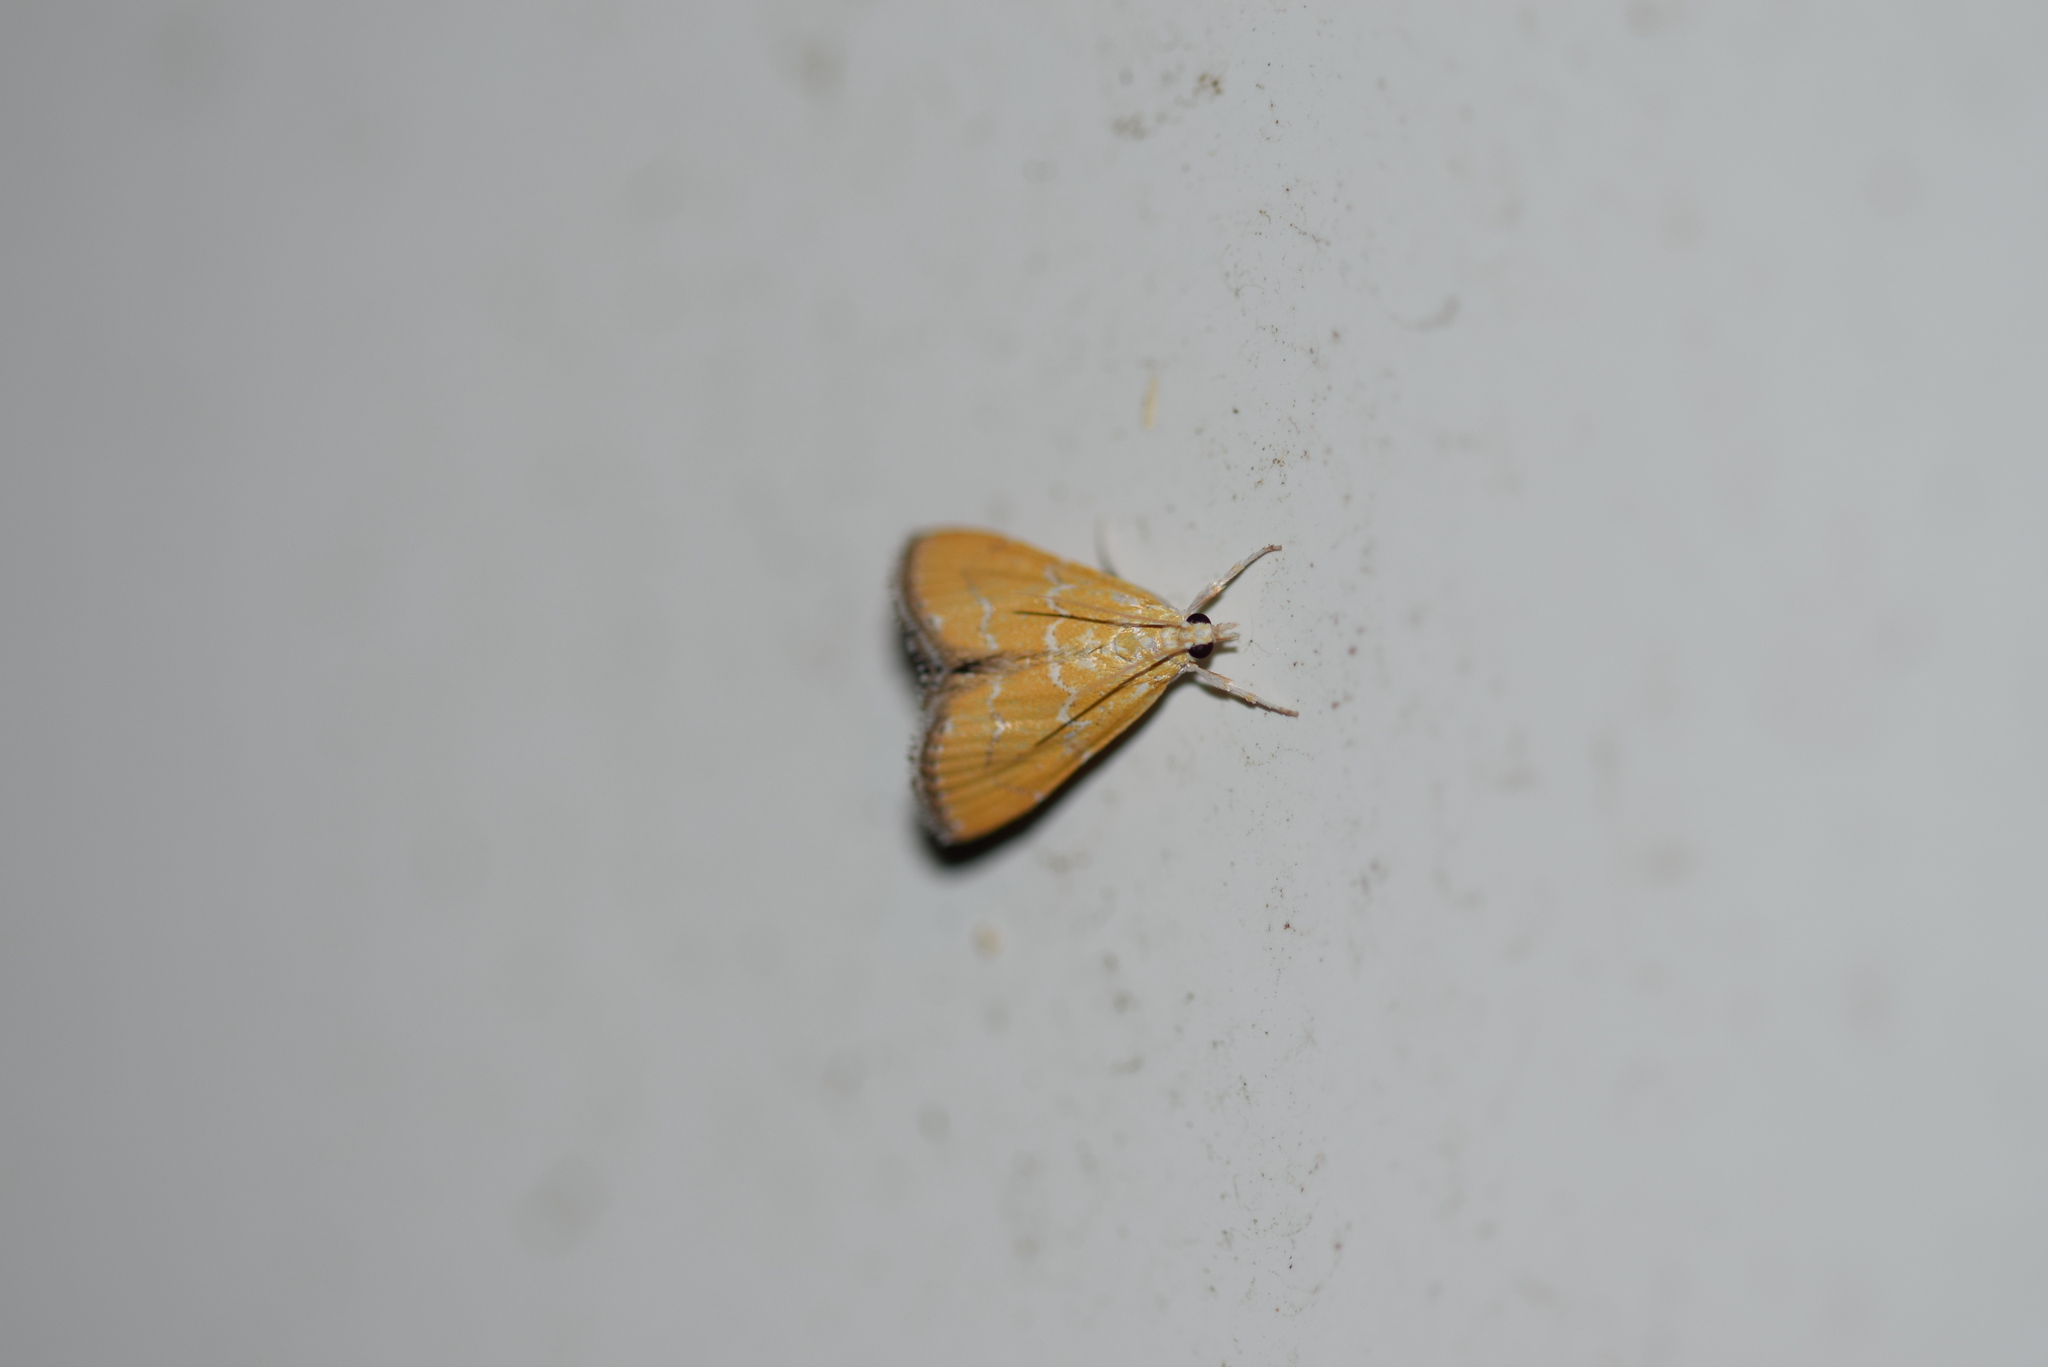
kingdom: Animalia
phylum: Arthropoda
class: Insecta
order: Lepidoptera
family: Crambidae
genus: Xanthophysa
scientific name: Xanthophysa psychicalis
